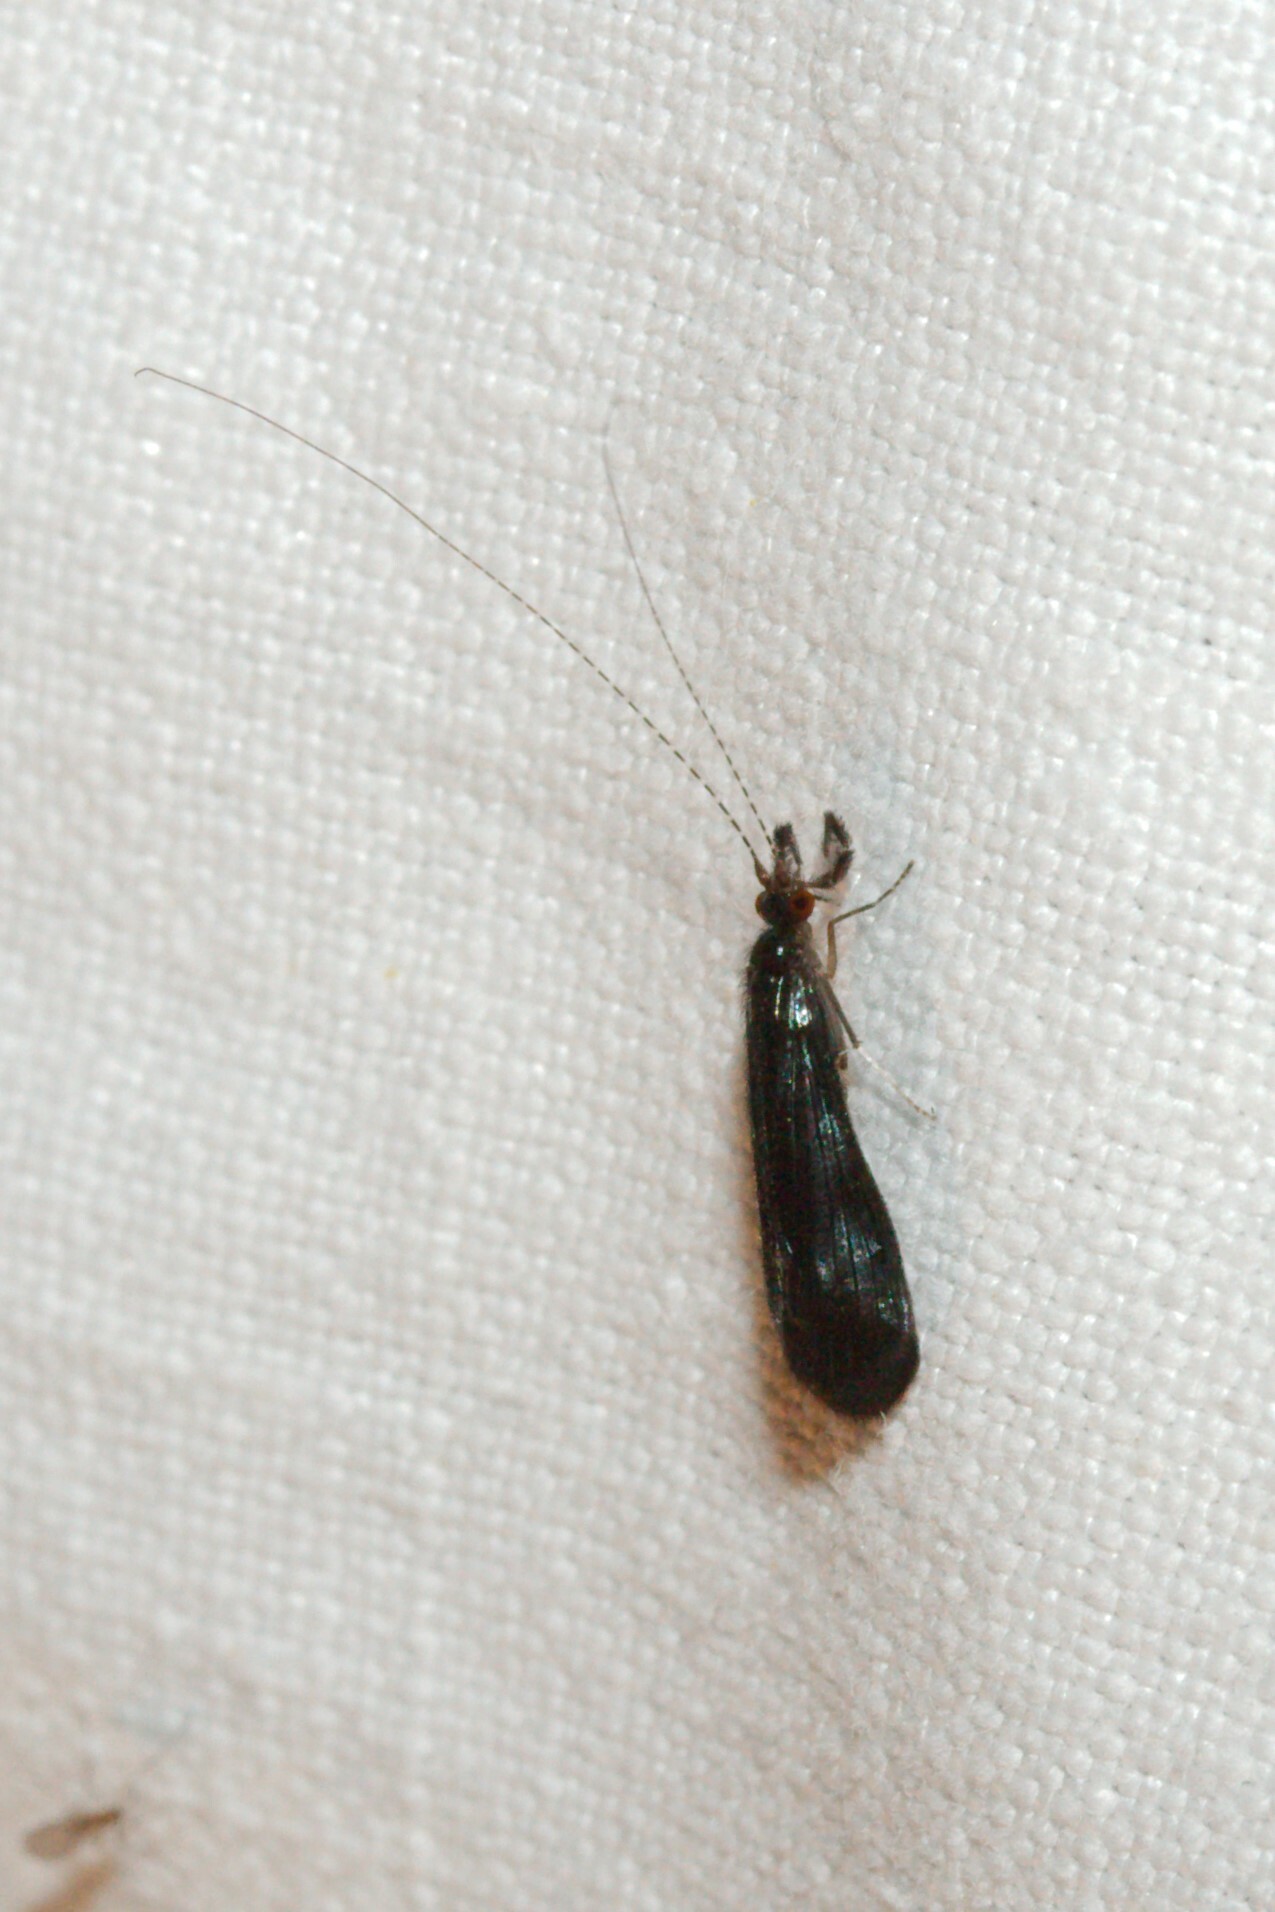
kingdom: Animalia
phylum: Arthropoda
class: Insecta
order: Trichoptera
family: Leptoceridae
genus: Mystacides
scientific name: Mystacides azureus
